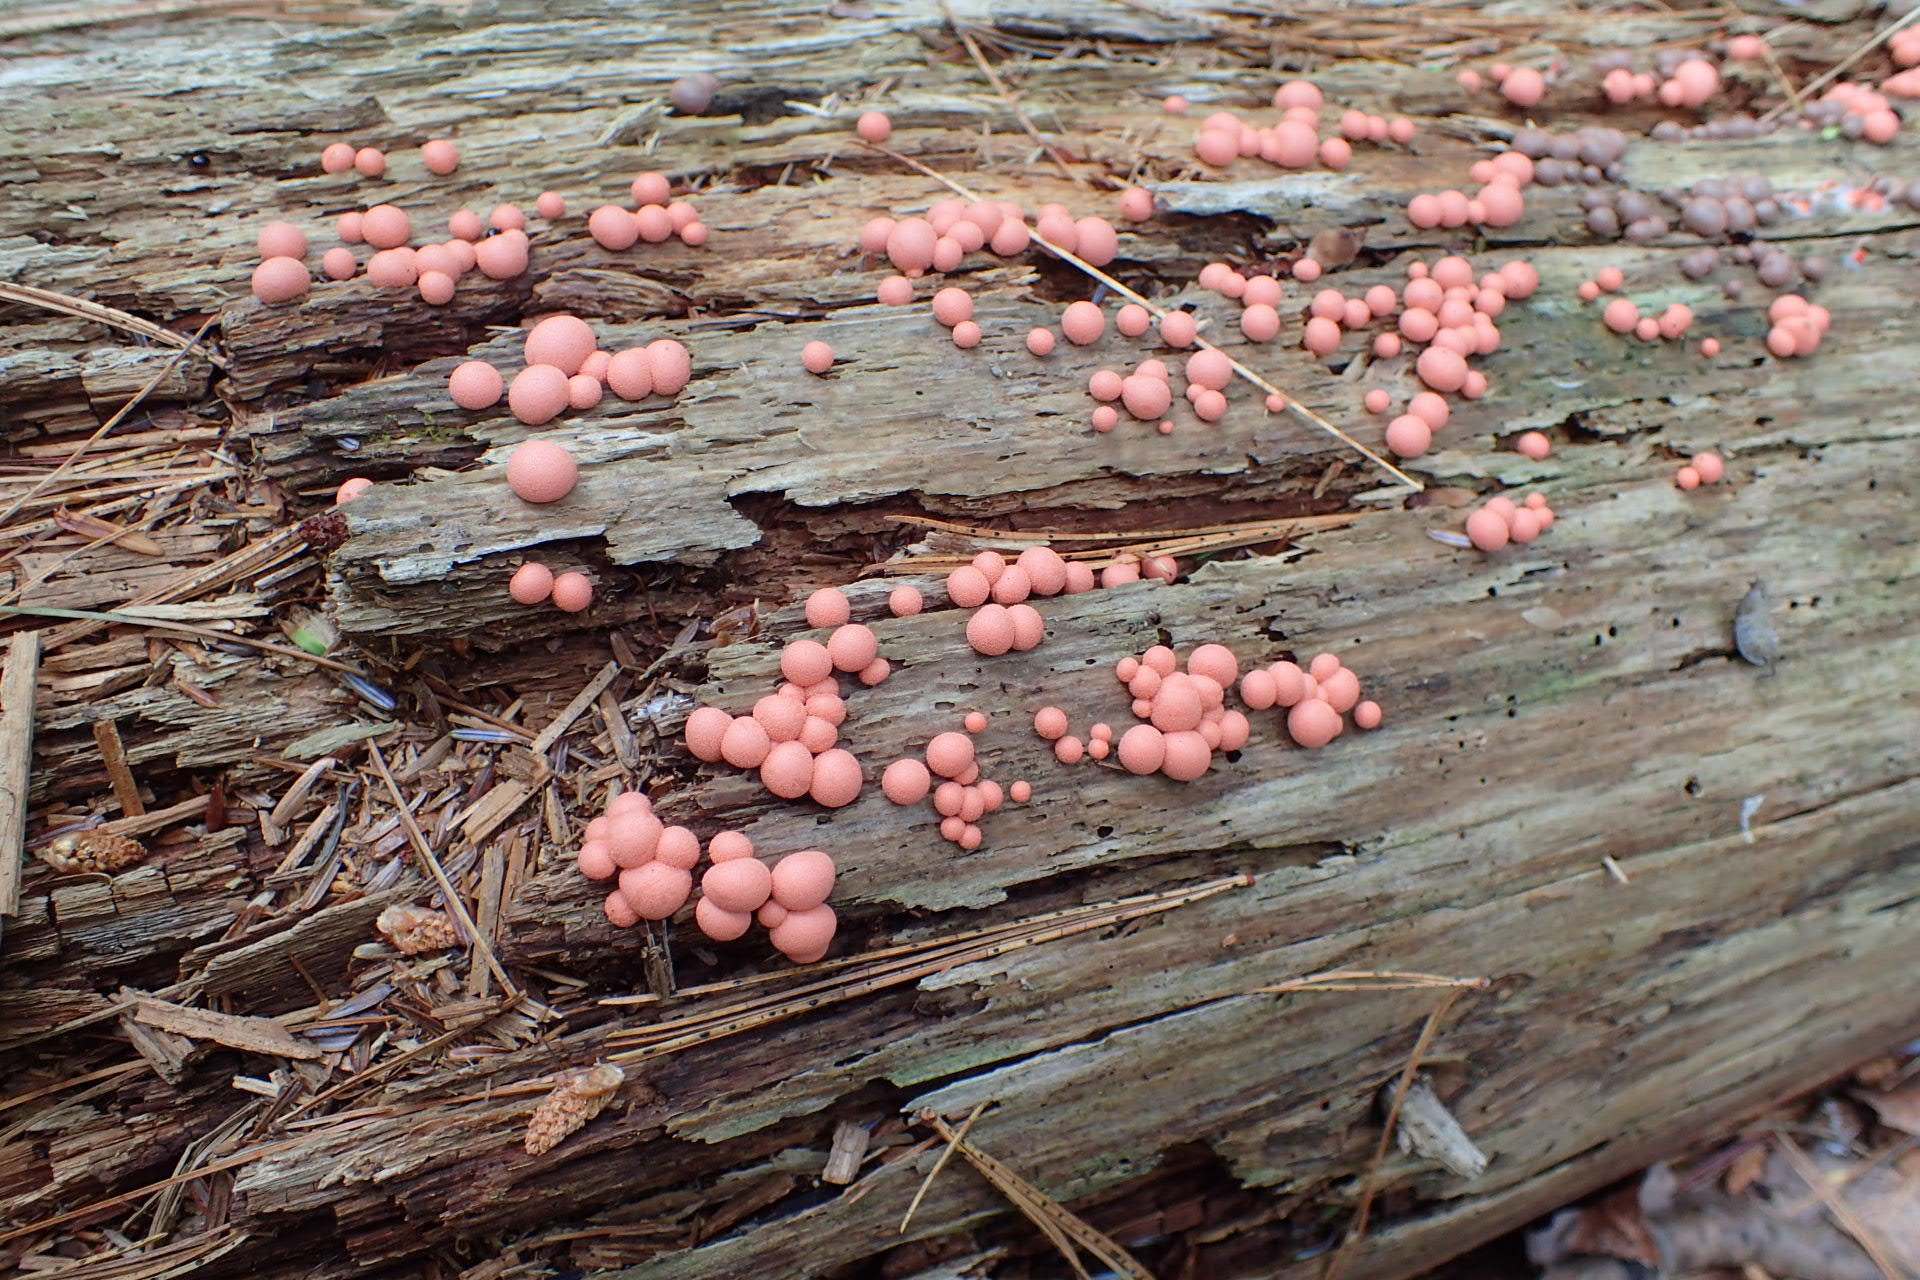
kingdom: Protozoa
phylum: Mycetozoa
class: Myxomycetes
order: Cribrariales
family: Tubiferaceae
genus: Lycogala
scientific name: Lycogala epidendrum
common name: Wolf's milk
